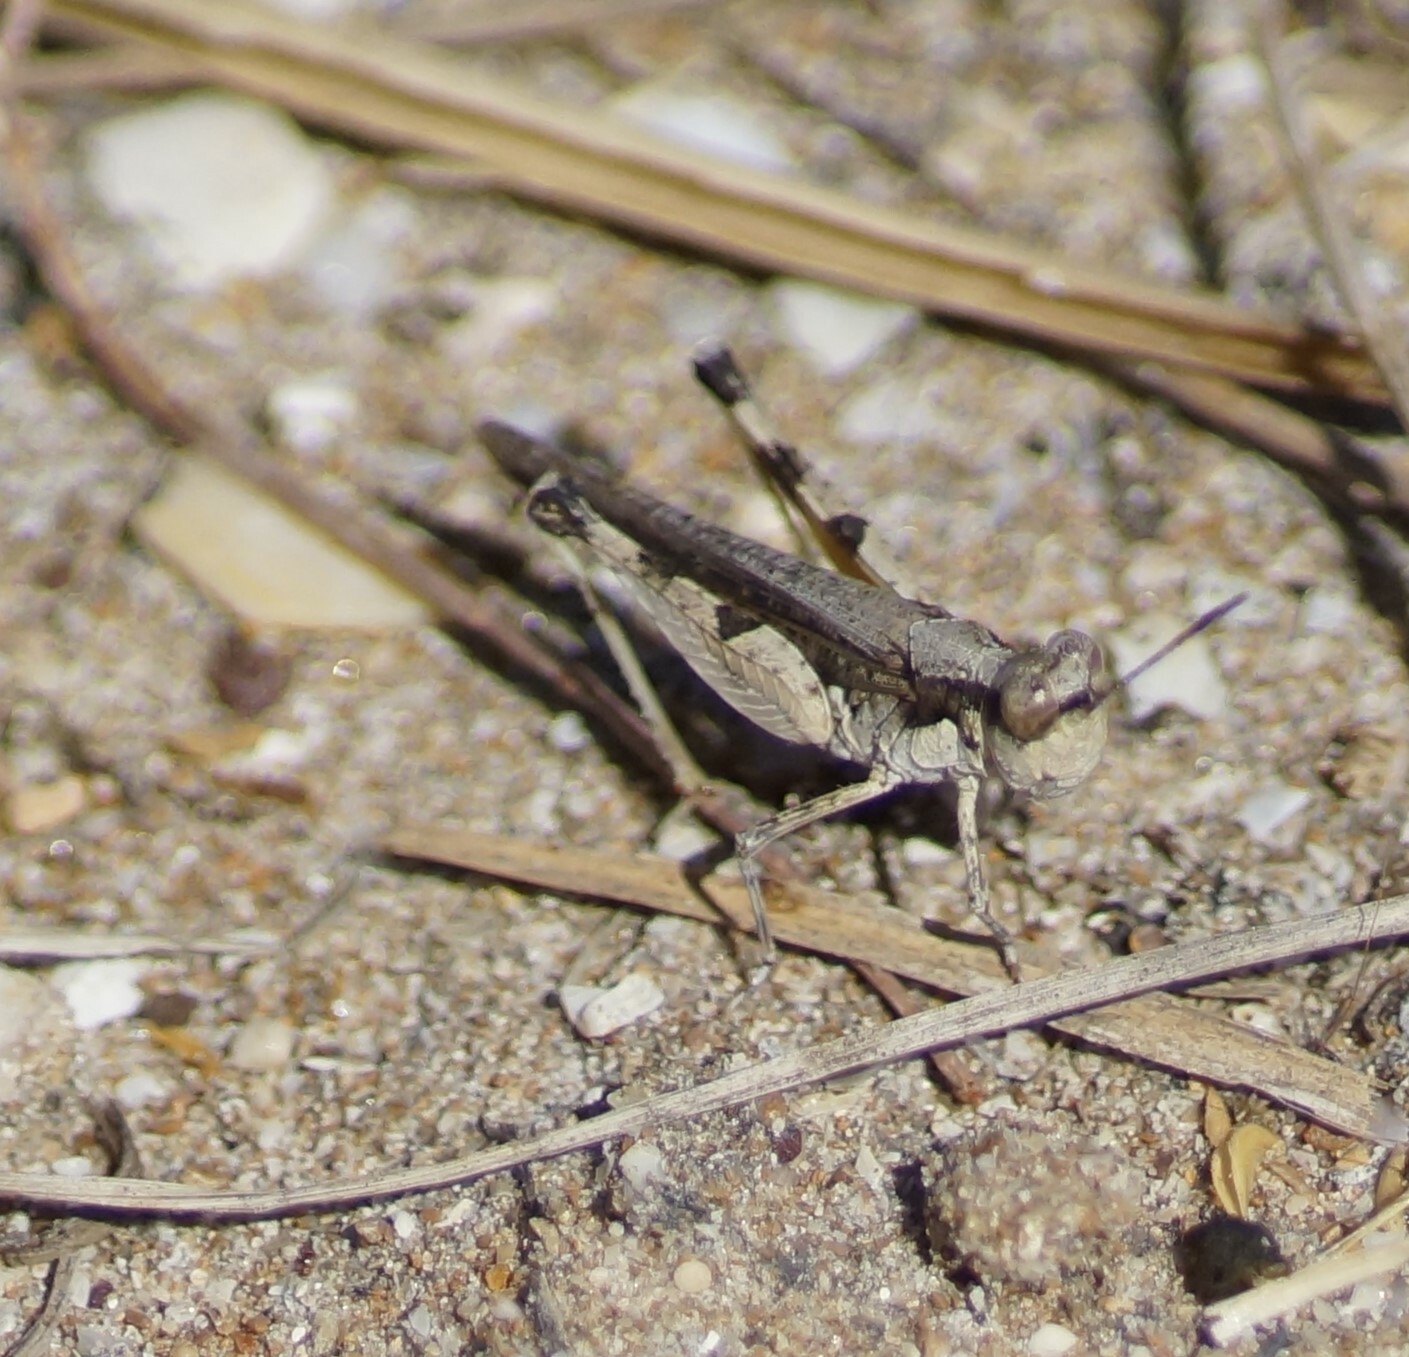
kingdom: Animalia
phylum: Arthropoda
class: Insecta
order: Orthoptera
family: Acrididae
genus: Pycnostictus
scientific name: Pycnostictus seriatus
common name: Common bandwing
